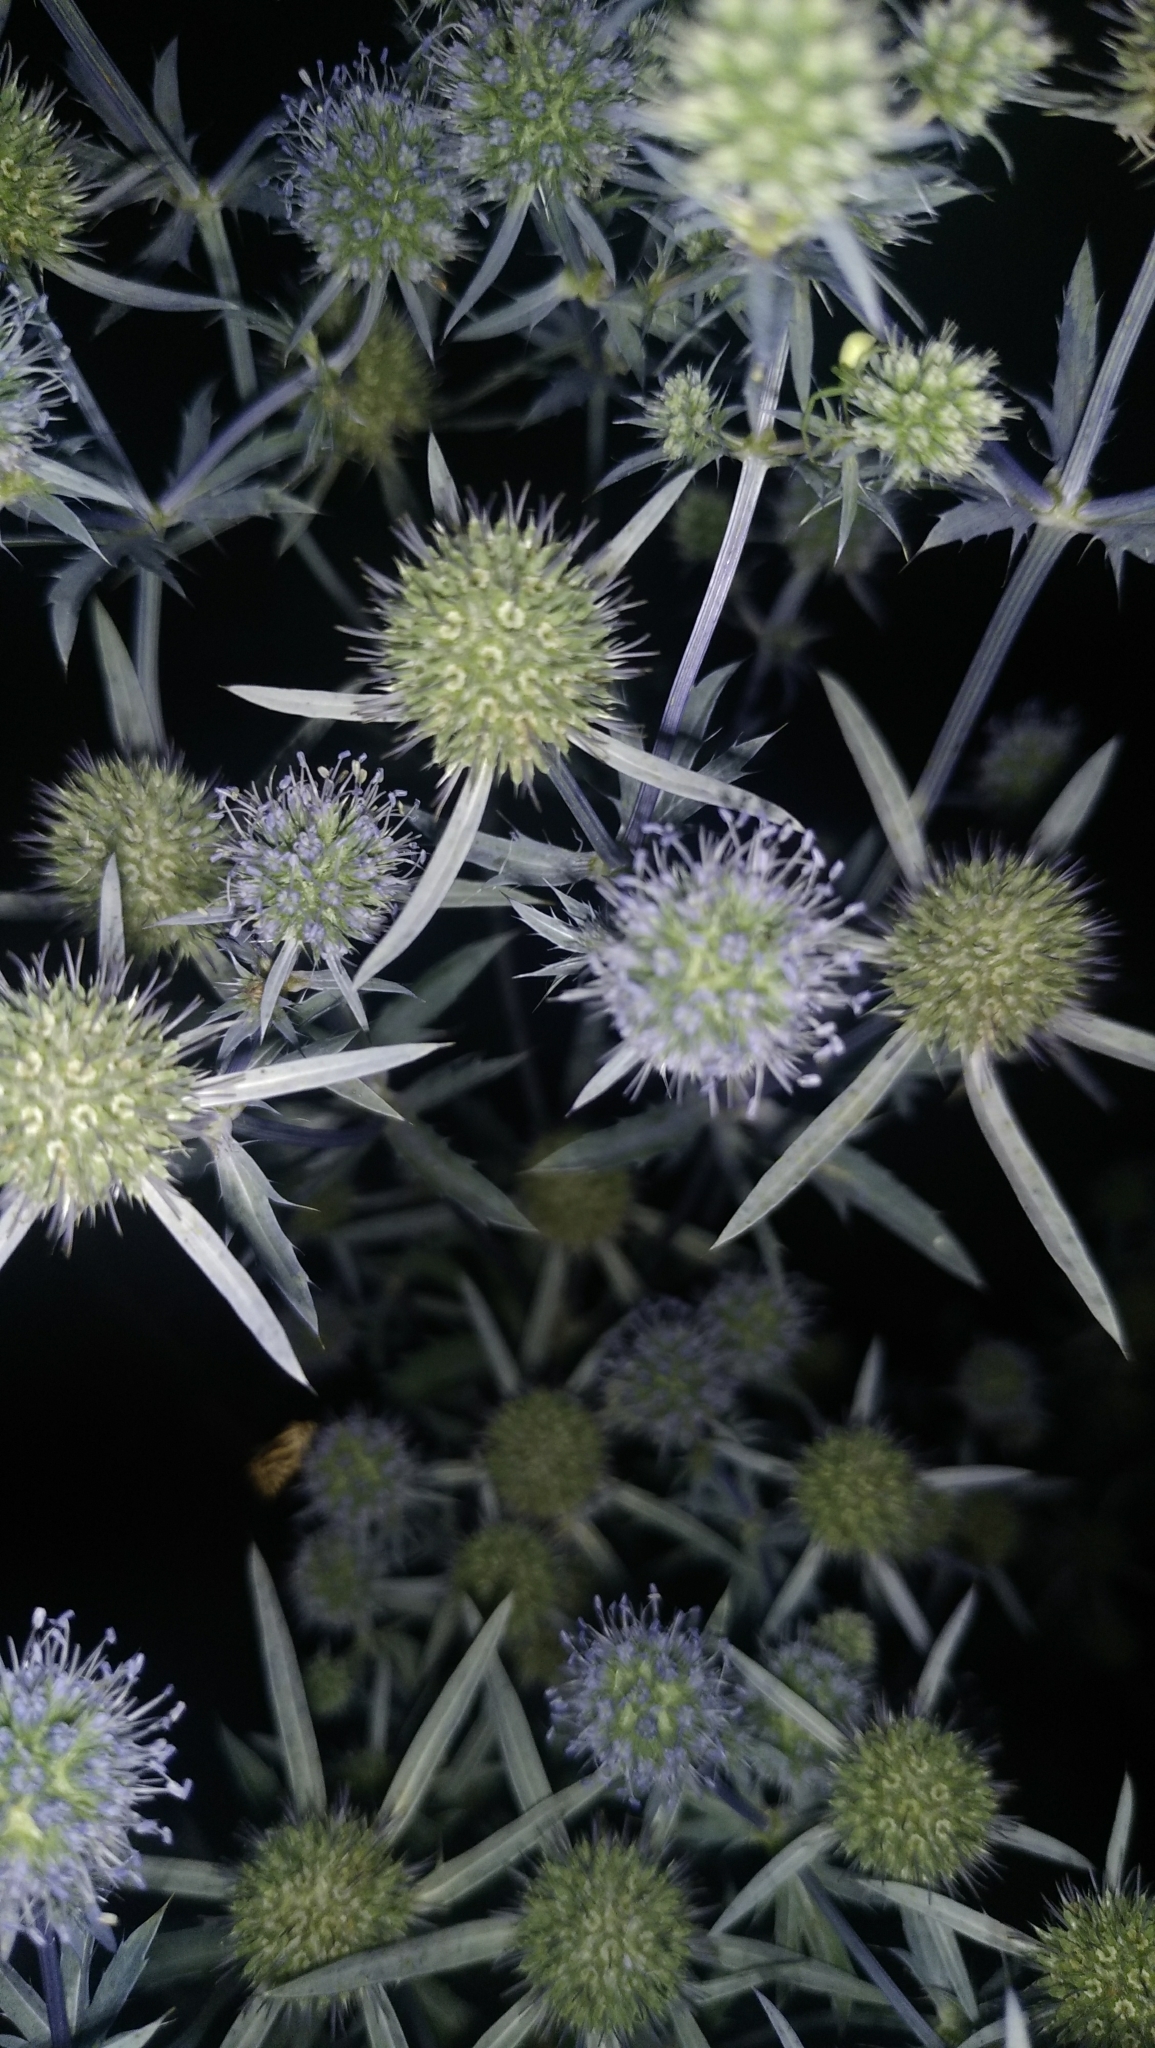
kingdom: Plantae
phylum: Tracheophyta
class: Magnoliopsida
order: Apiales
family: Apiaceae
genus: Eryngium
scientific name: Eryngium campestre
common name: Field eryngo
